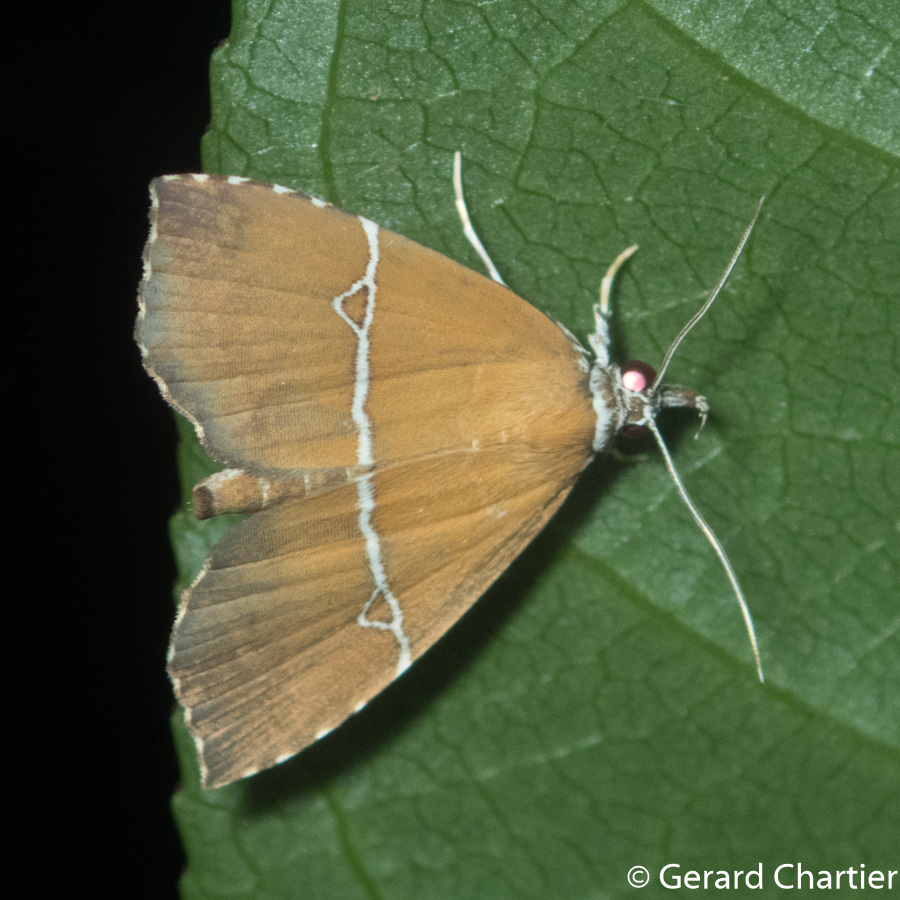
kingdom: Animalia
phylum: Arthropoda
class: Insecta
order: Lepidoptera
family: Erebidae
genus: Catada
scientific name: Catada canaliferalis
